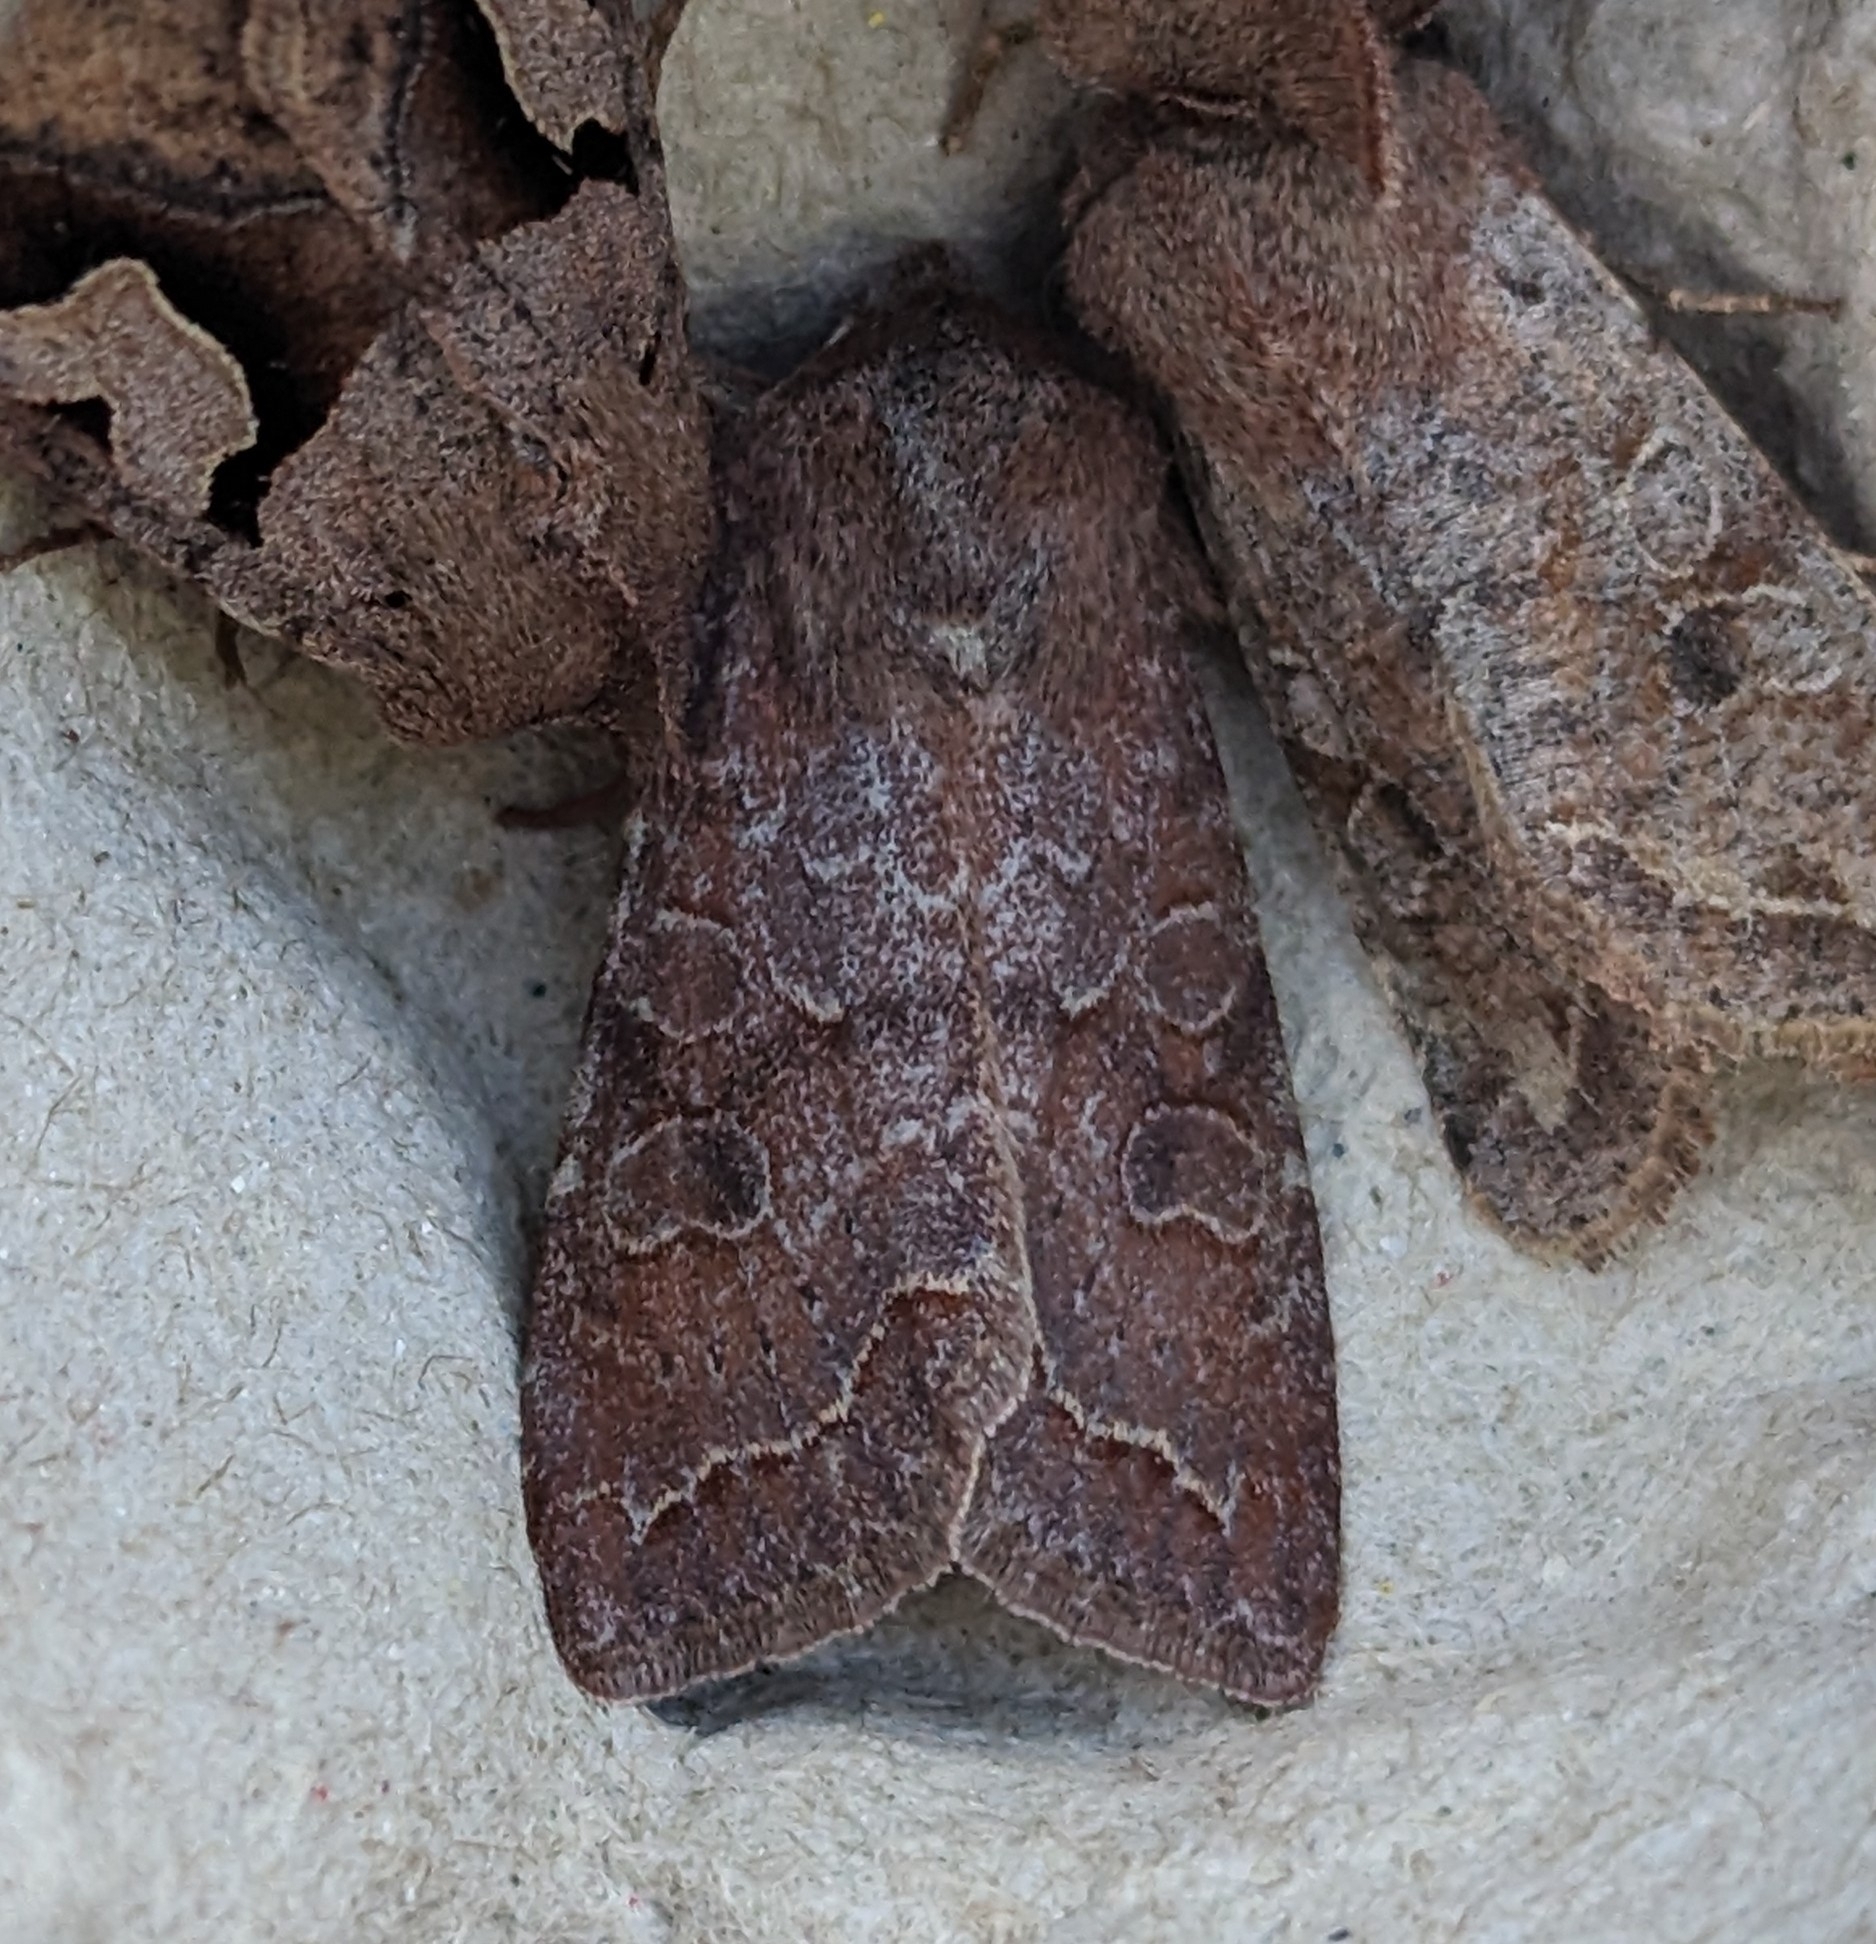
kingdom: Animalia
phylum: Arthropoda
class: Insecta
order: Lepidoptera
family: Noctuidae
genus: Orthosia
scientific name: Orthosia revicta
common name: Rusty whitesided caterpillar
